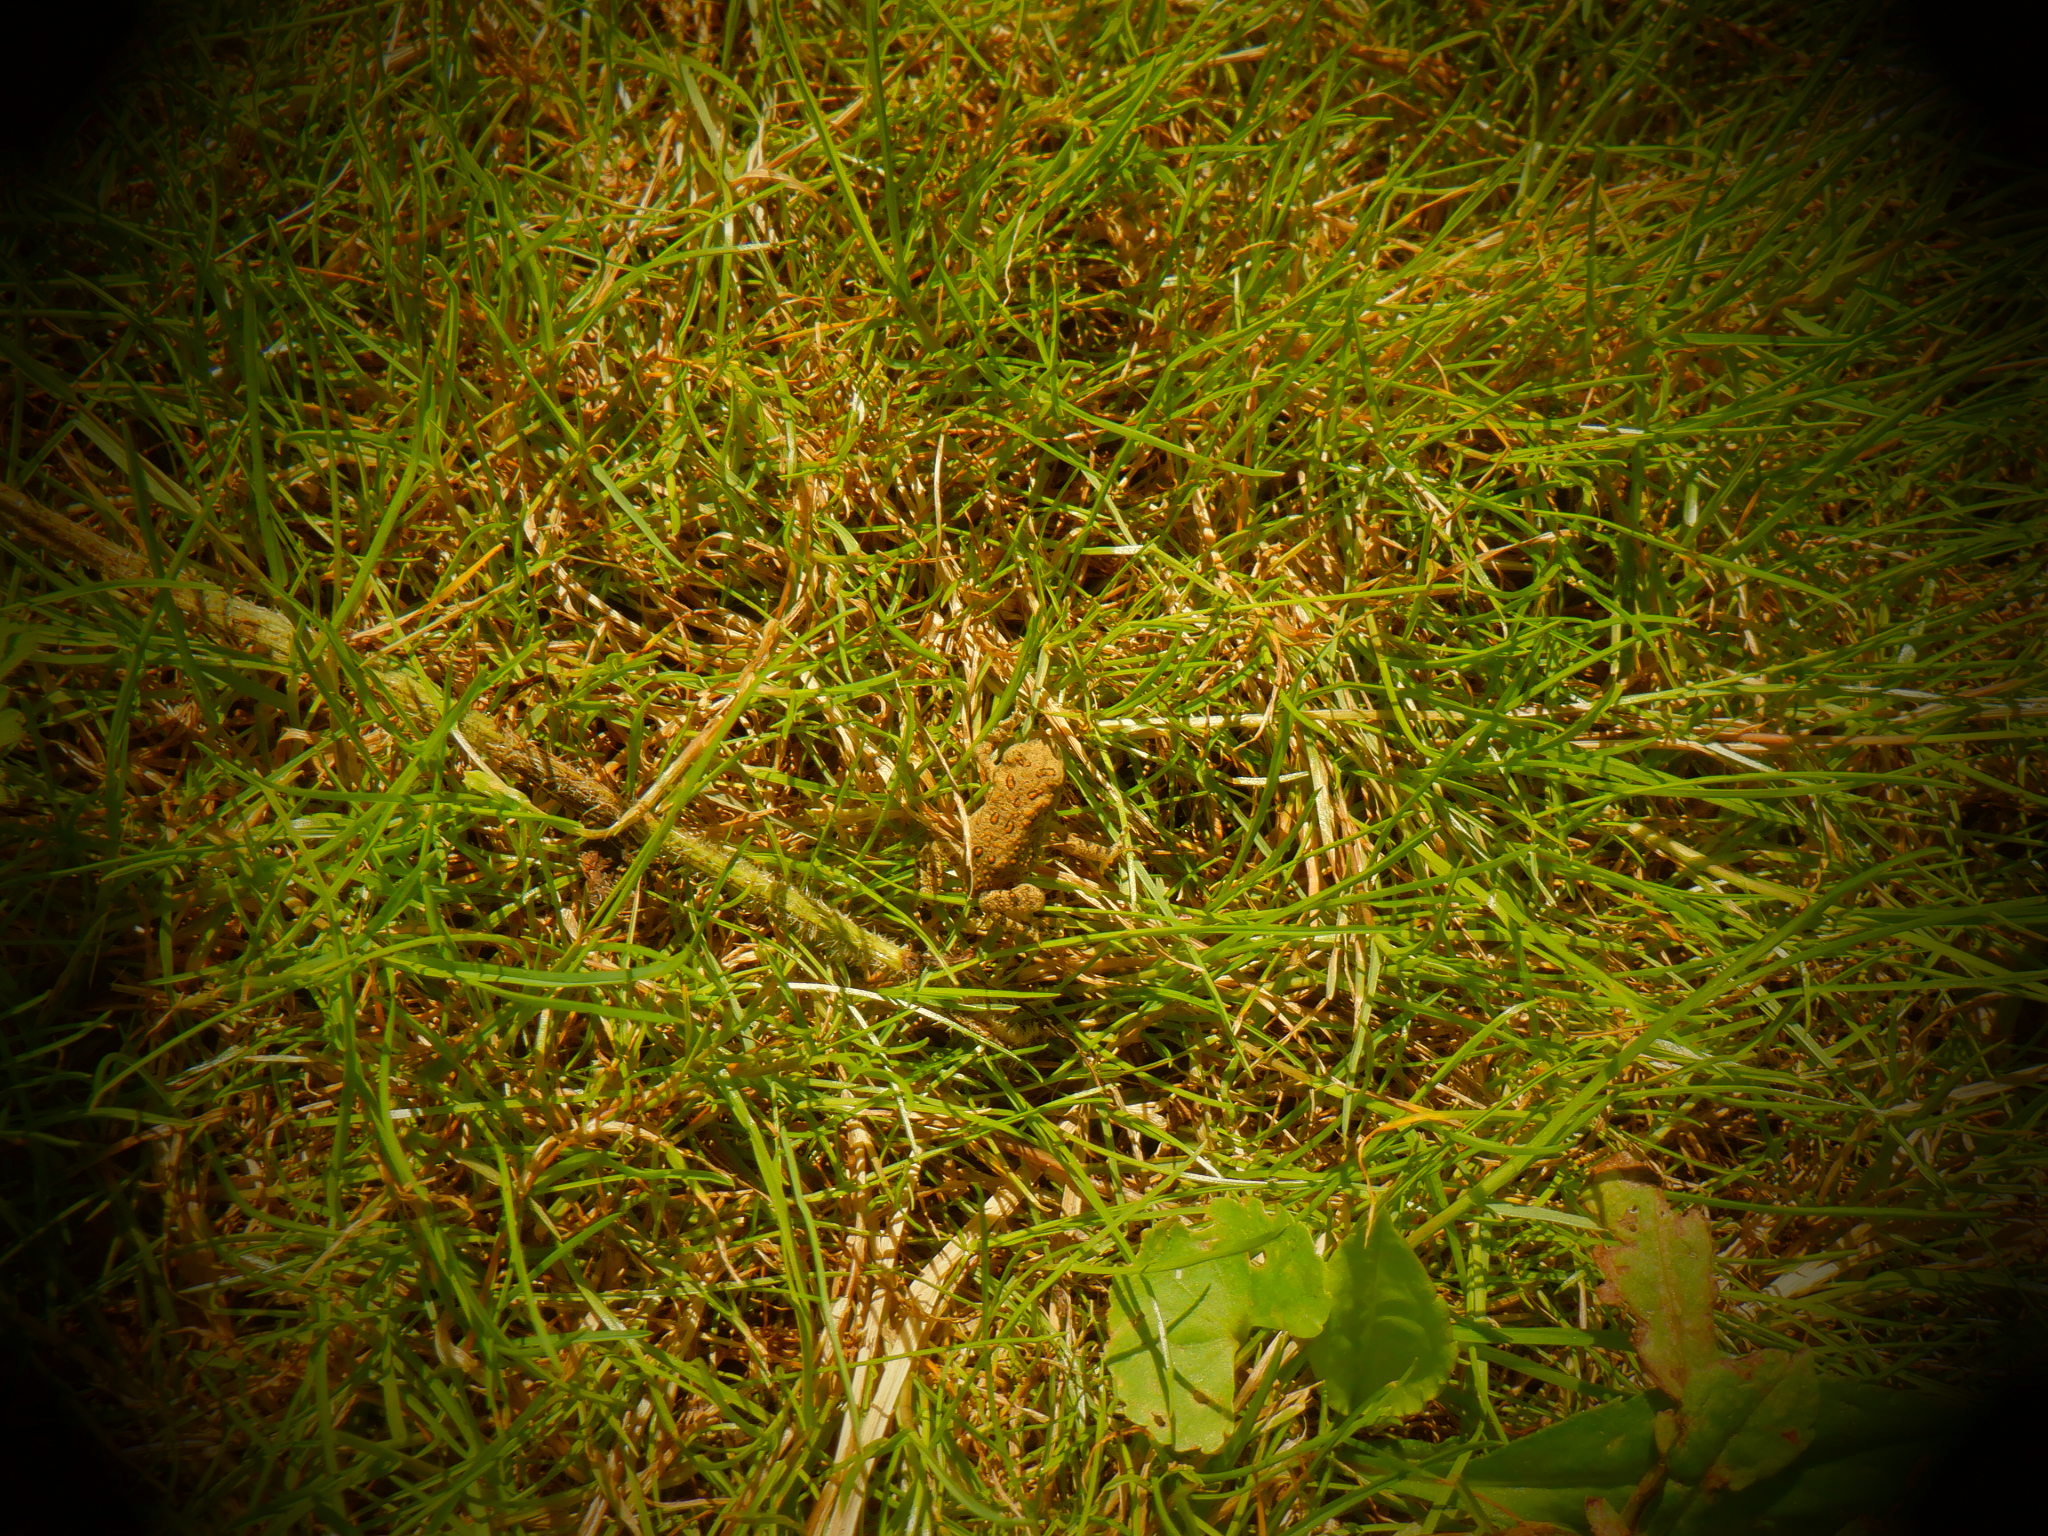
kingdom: Animalia
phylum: Chordata
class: Amphibia
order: Anura
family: Bufonidae
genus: Anaxyrus
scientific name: Anaxyrus americanus
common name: American toad
